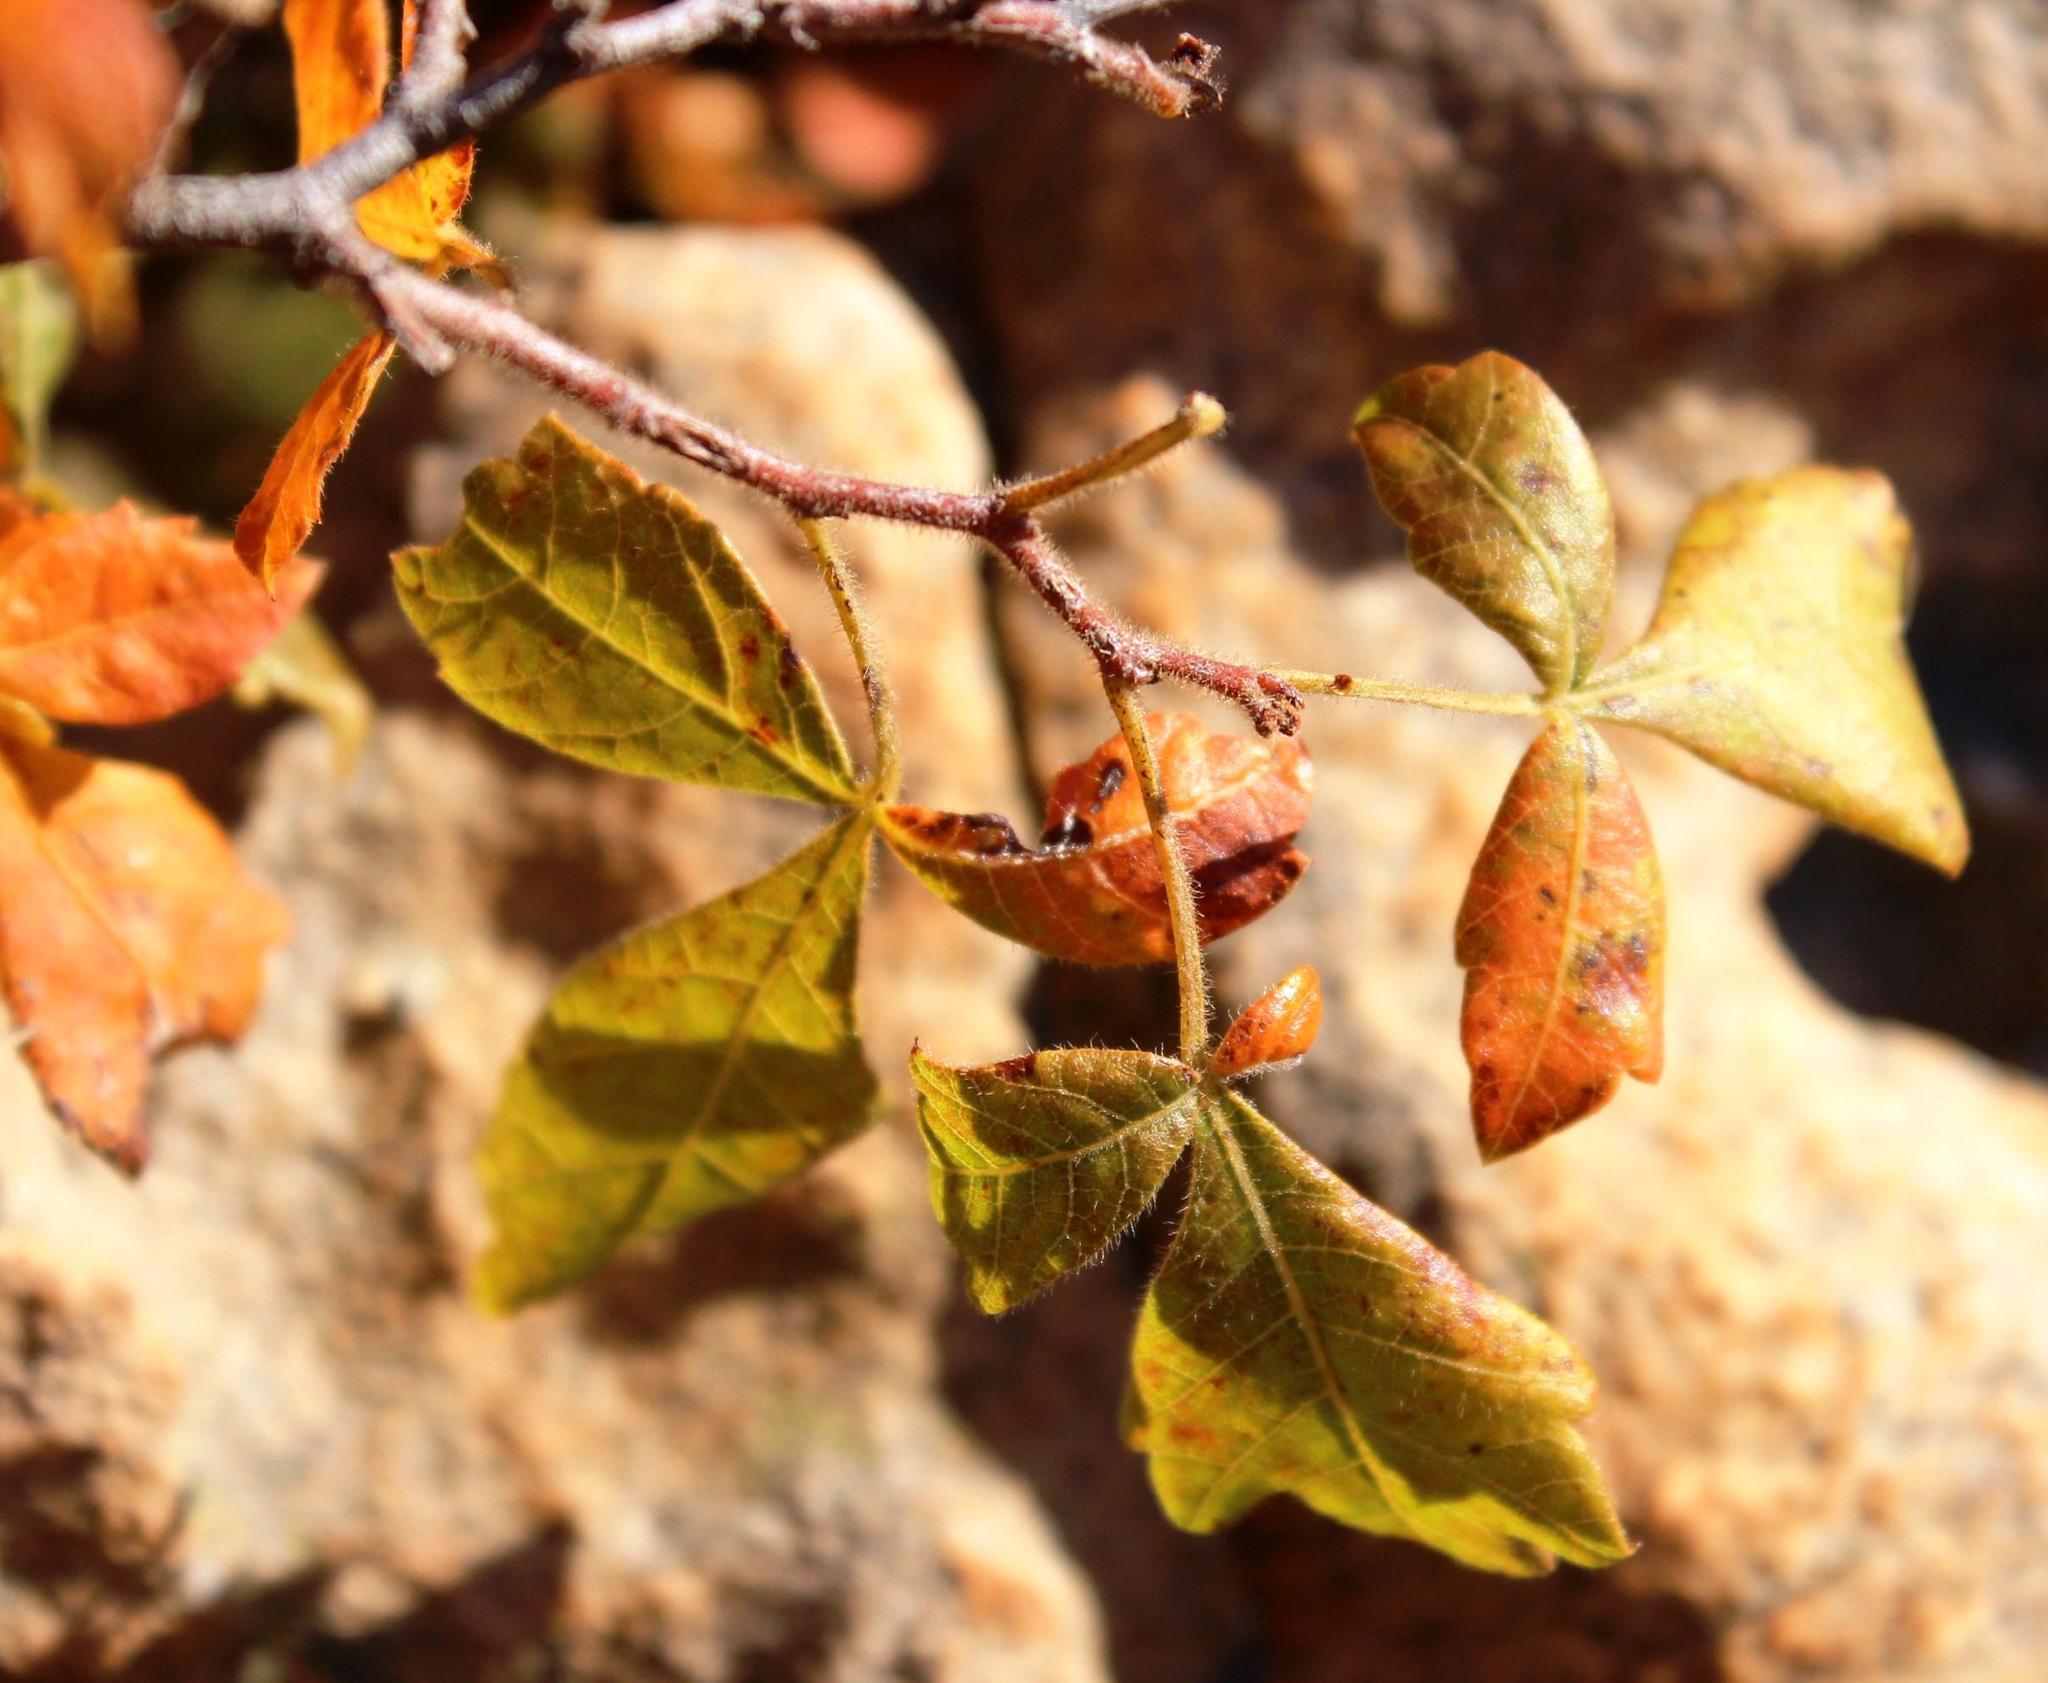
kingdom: Plantae
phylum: Tracheophyta
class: Magnoliopsida
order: Sapindales
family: Anacardiaceae
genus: Searsia
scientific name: Searsia dentata
